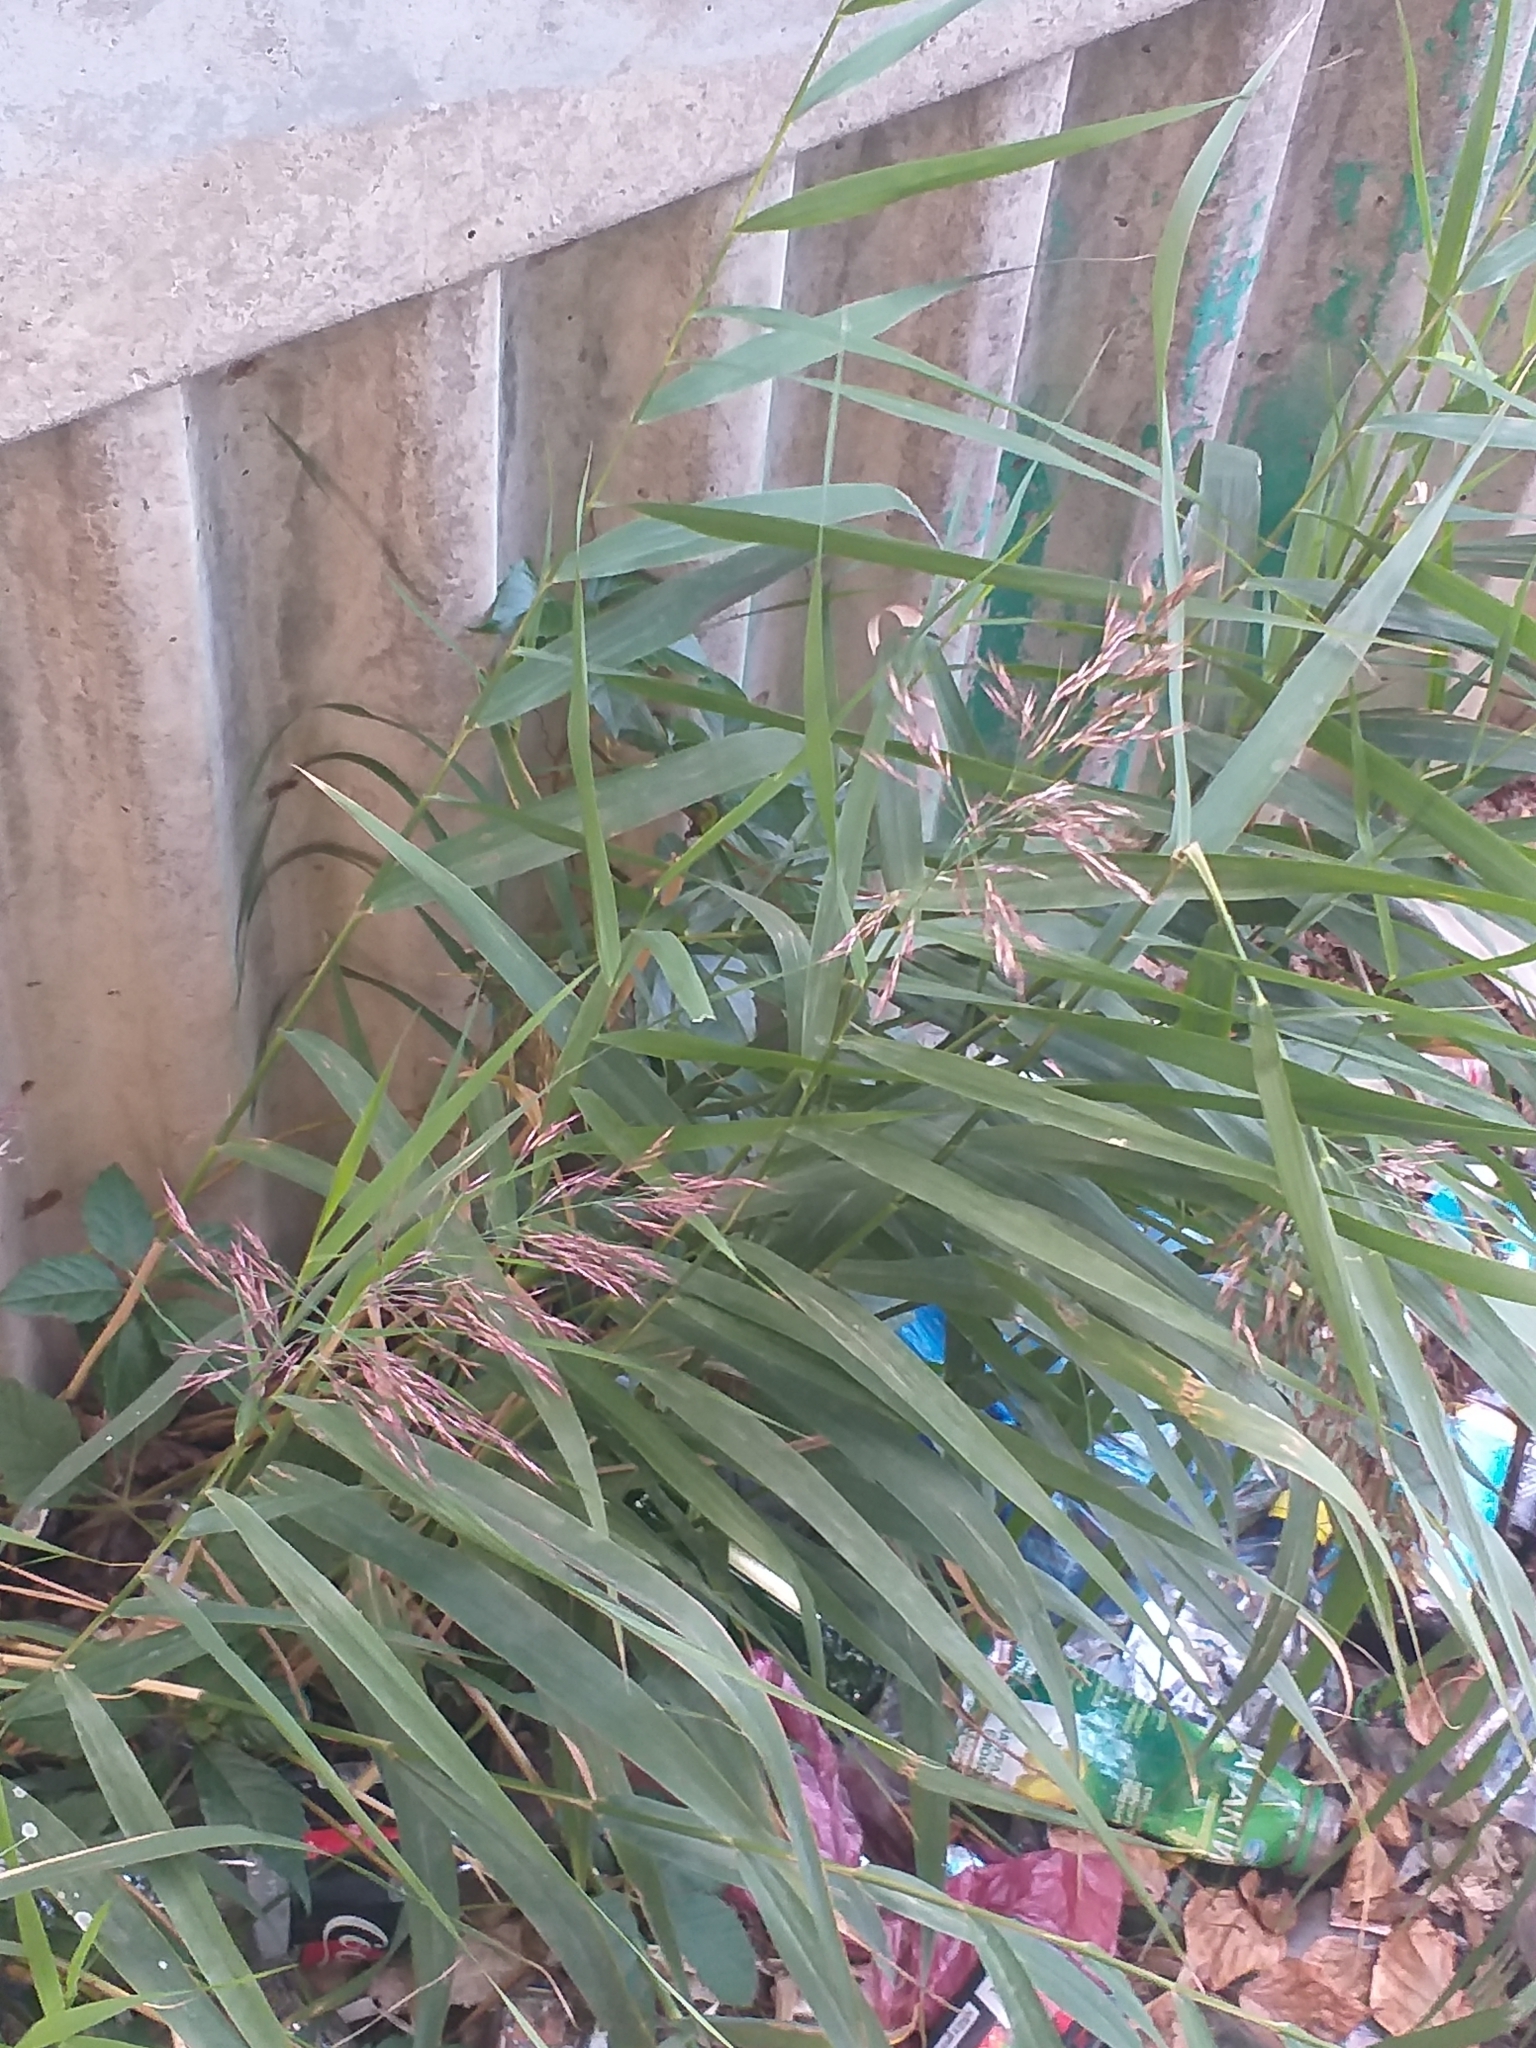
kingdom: Plantae
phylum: Tracheophyta
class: Liliopsida
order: Poales
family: Poaceae
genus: Phragmites
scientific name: Phragmites australis
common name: Common reed
